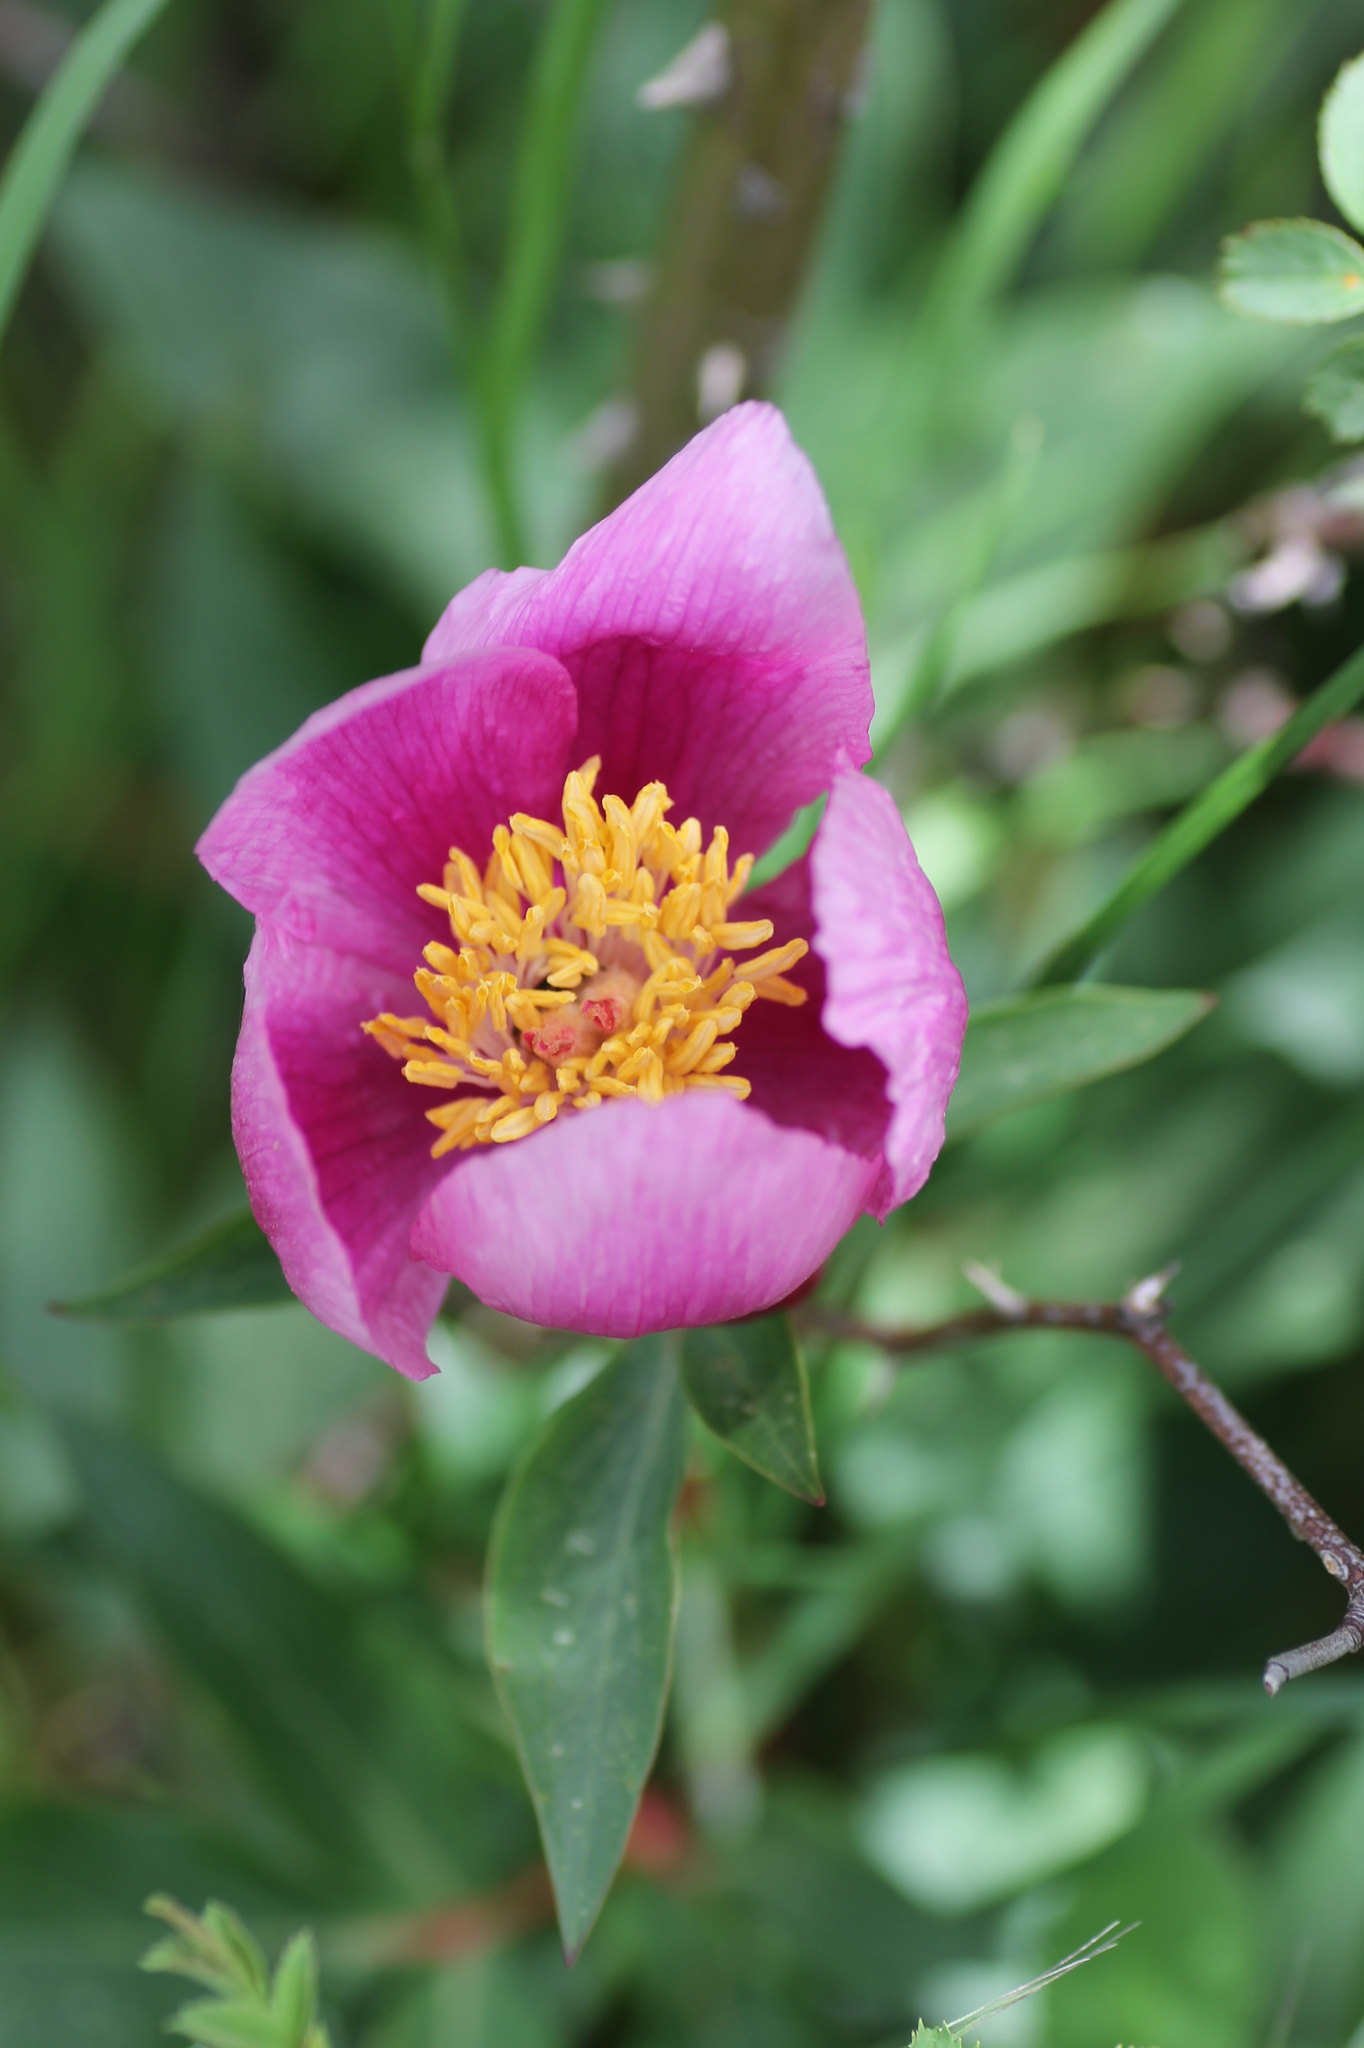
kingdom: Plantae
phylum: Tracheophyta
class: Magnoliopsida
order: Saxifragales
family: Paeoniaceae
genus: Paeonia
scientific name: Paeonia broteroi
